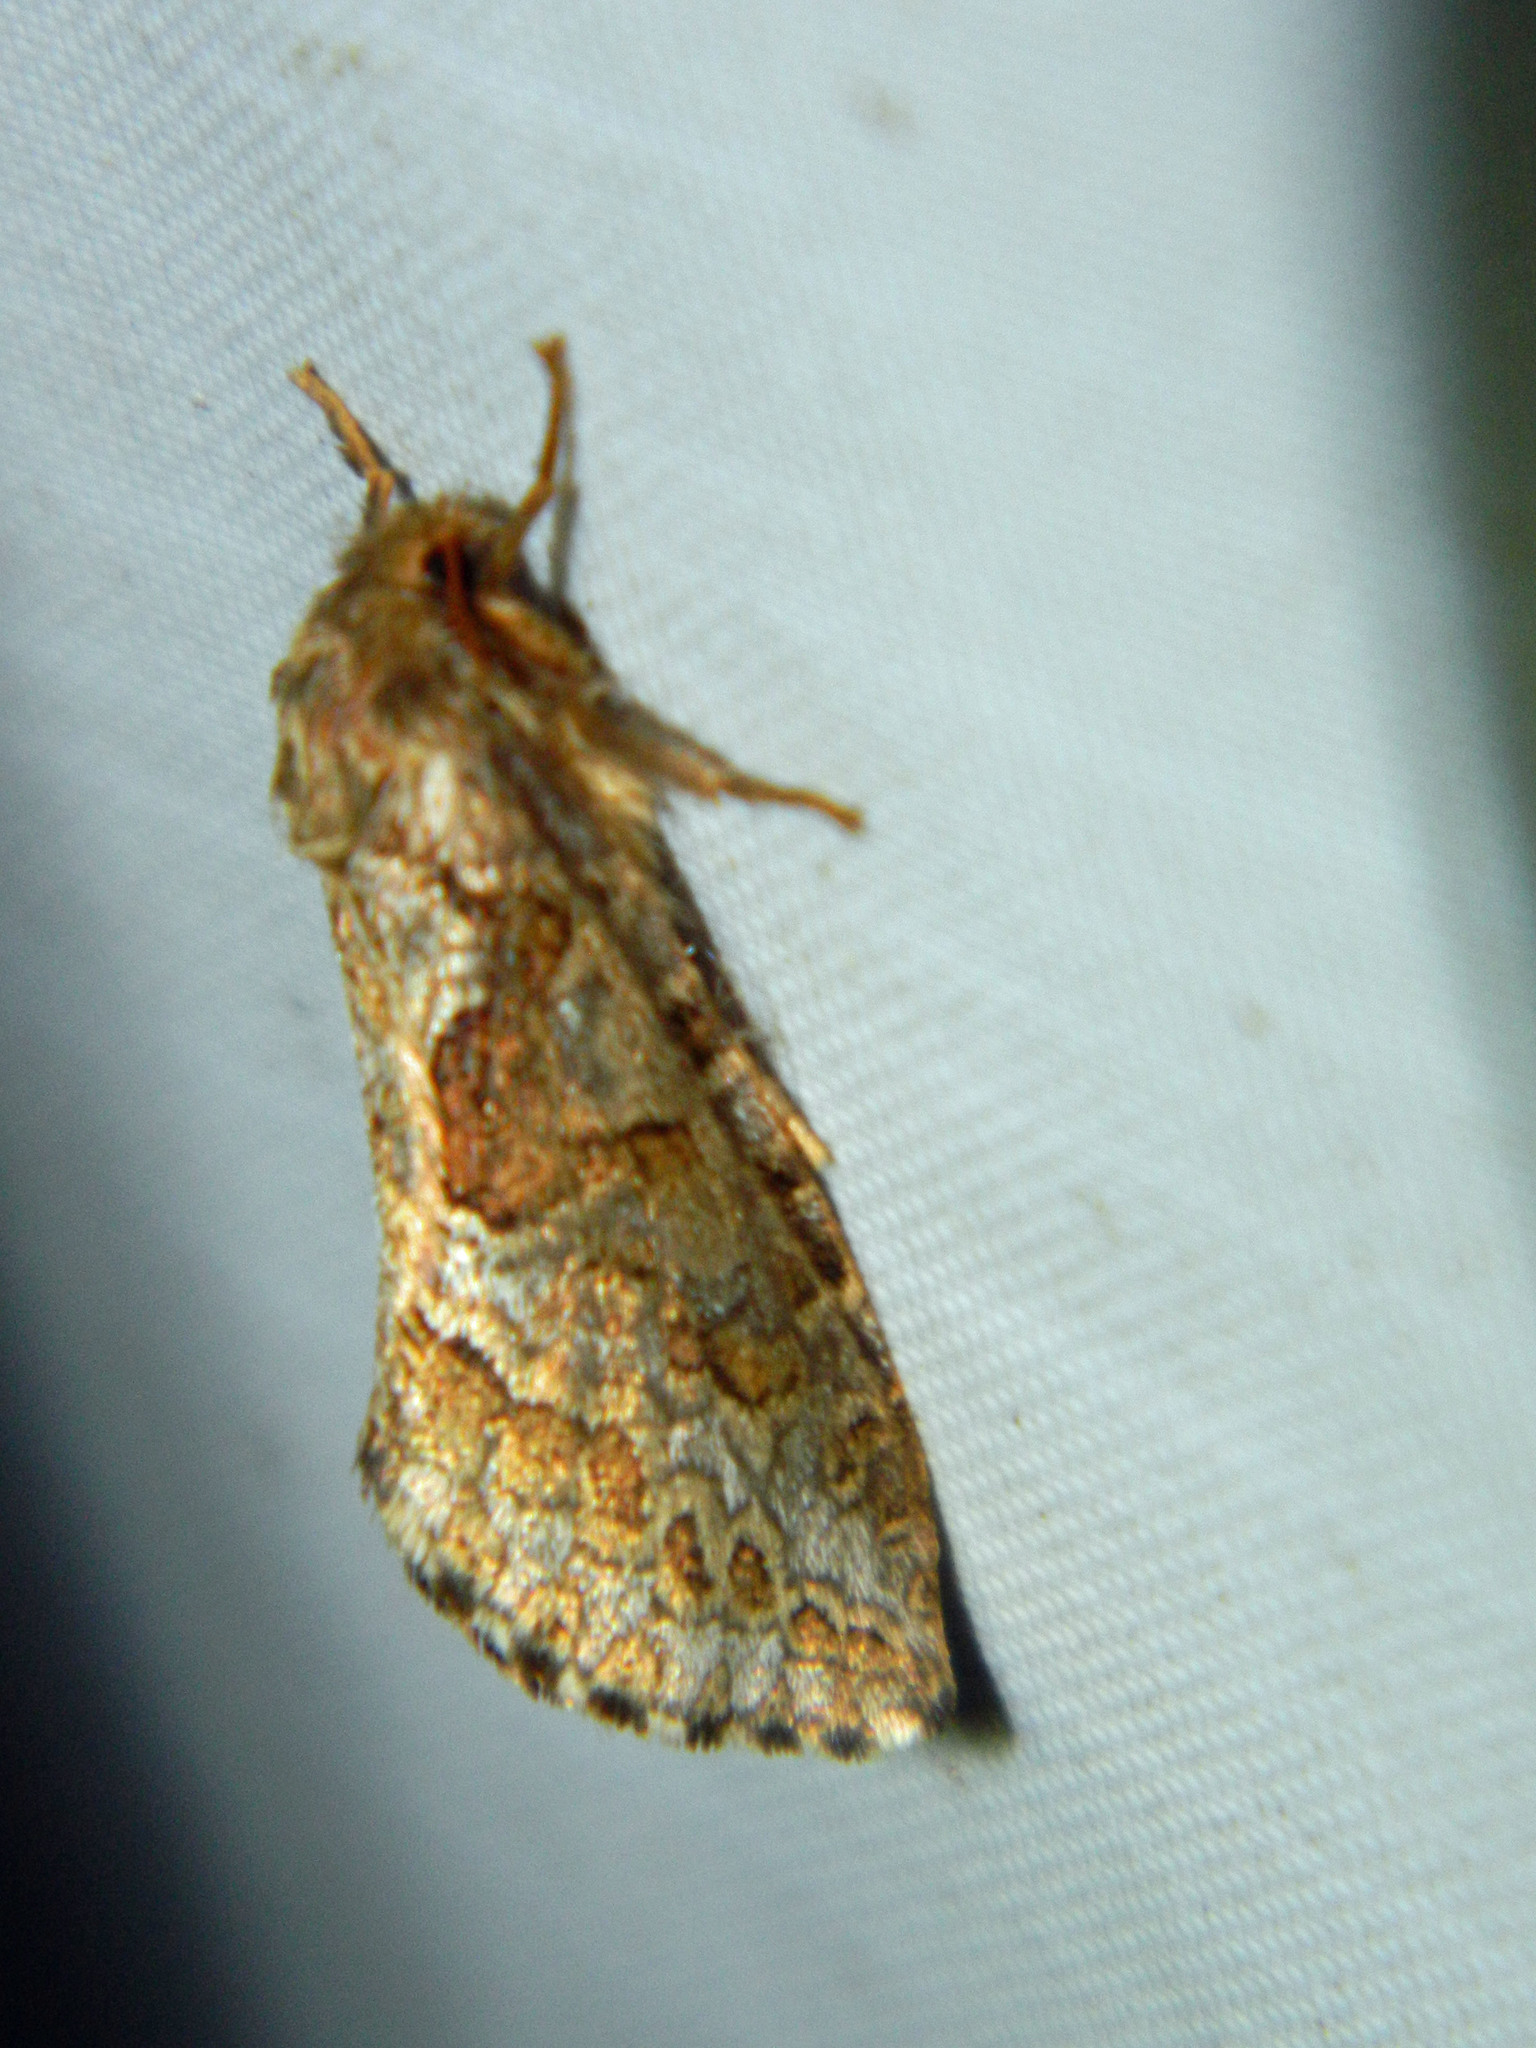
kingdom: Animalia
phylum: Arthropoda
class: Insecta
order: Lepidoptera
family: Hepialidae
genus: Korscheltellus
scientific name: Korscheltellus gracilis
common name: Conifer swift moth
